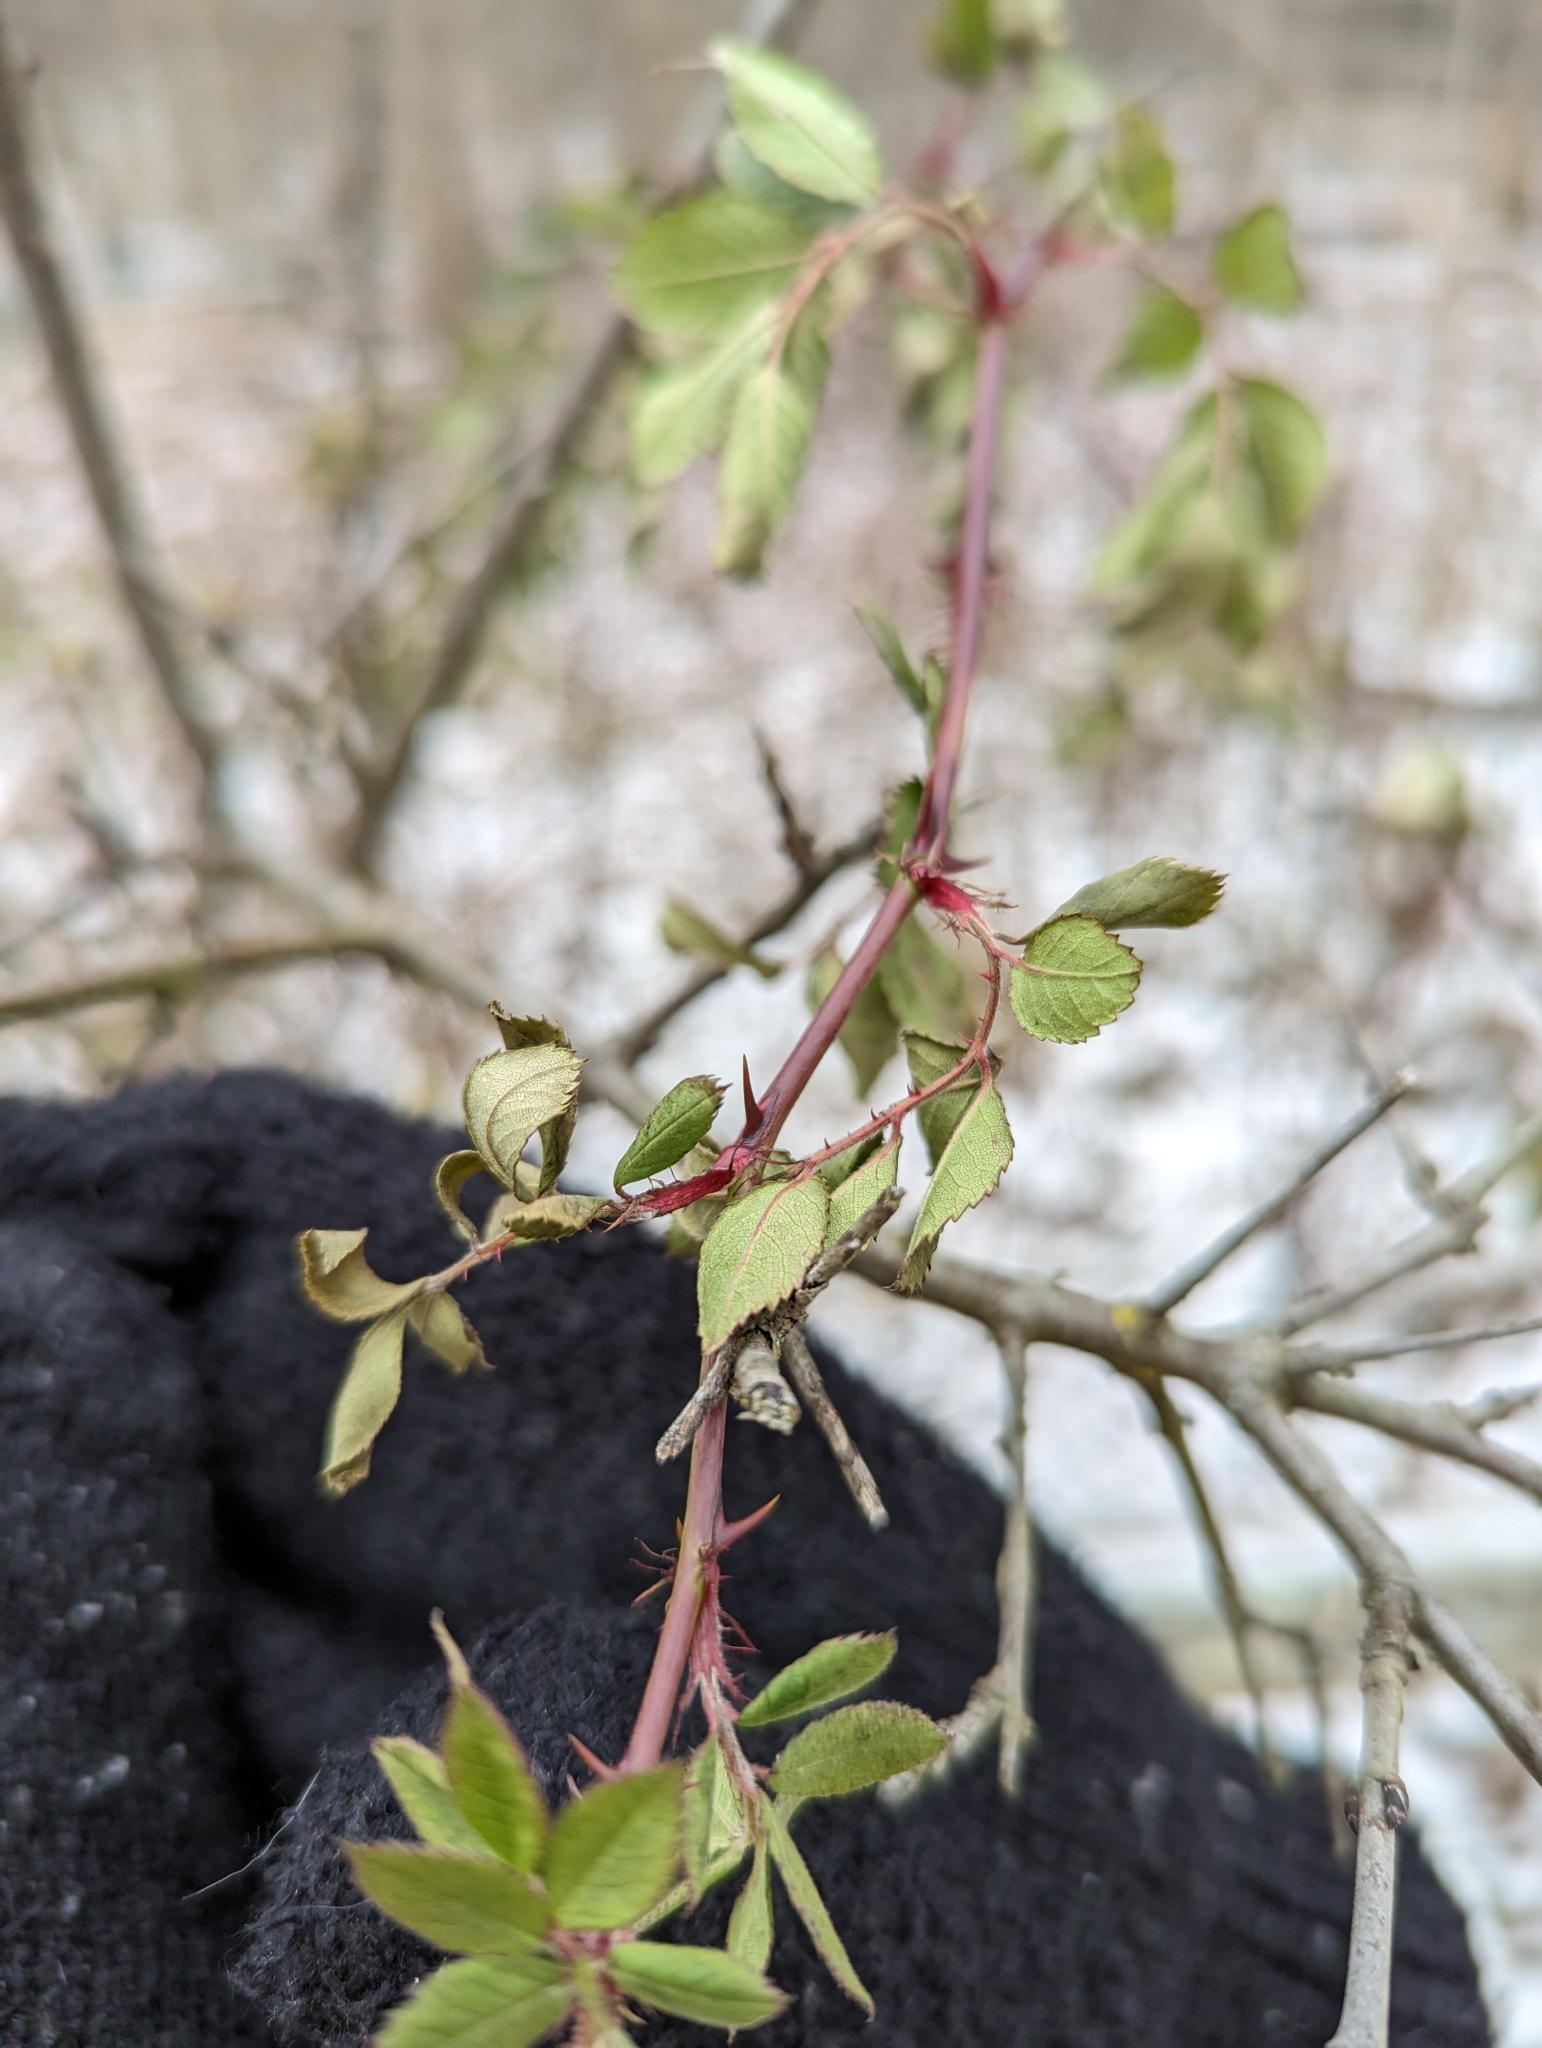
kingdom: Plantae
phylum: Tracheophyta
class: Magnoliopsida
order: Rosales
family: Rosaceae
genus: Rosa
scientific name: Rosa multiflora
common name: Multiflora rose
